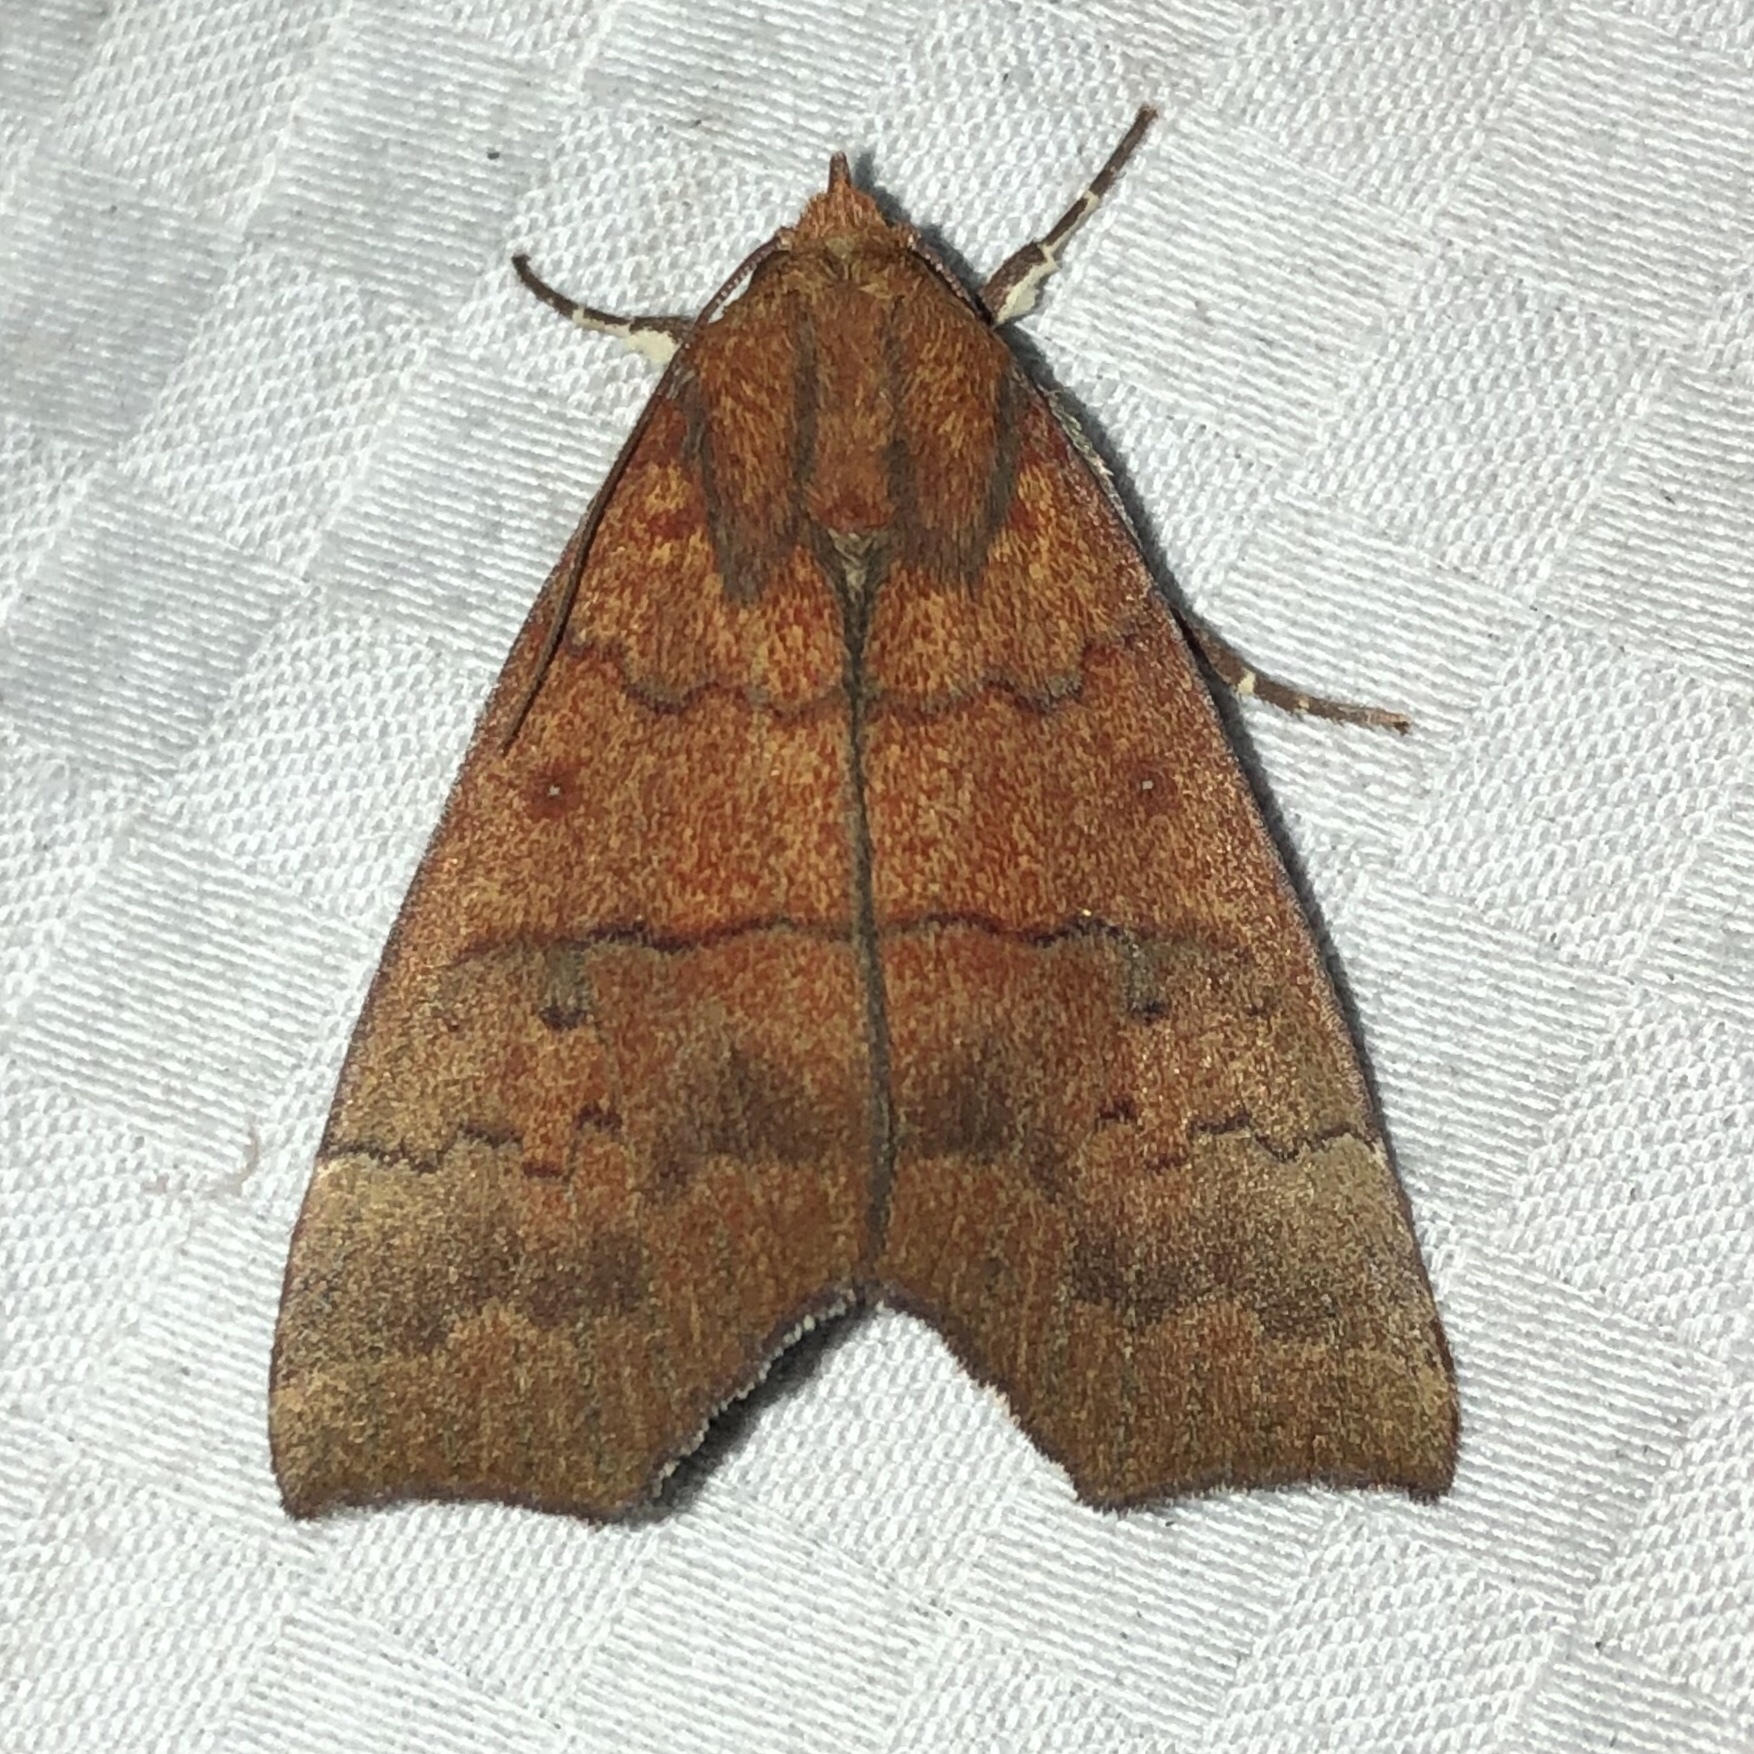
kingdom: Animalia
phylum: Arthropoda
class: Insecta
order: Lepidoptera
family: Erebidae
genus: Rusicada
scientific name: Rusicada privata
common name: Hibiscus leaf caterpillar moth
